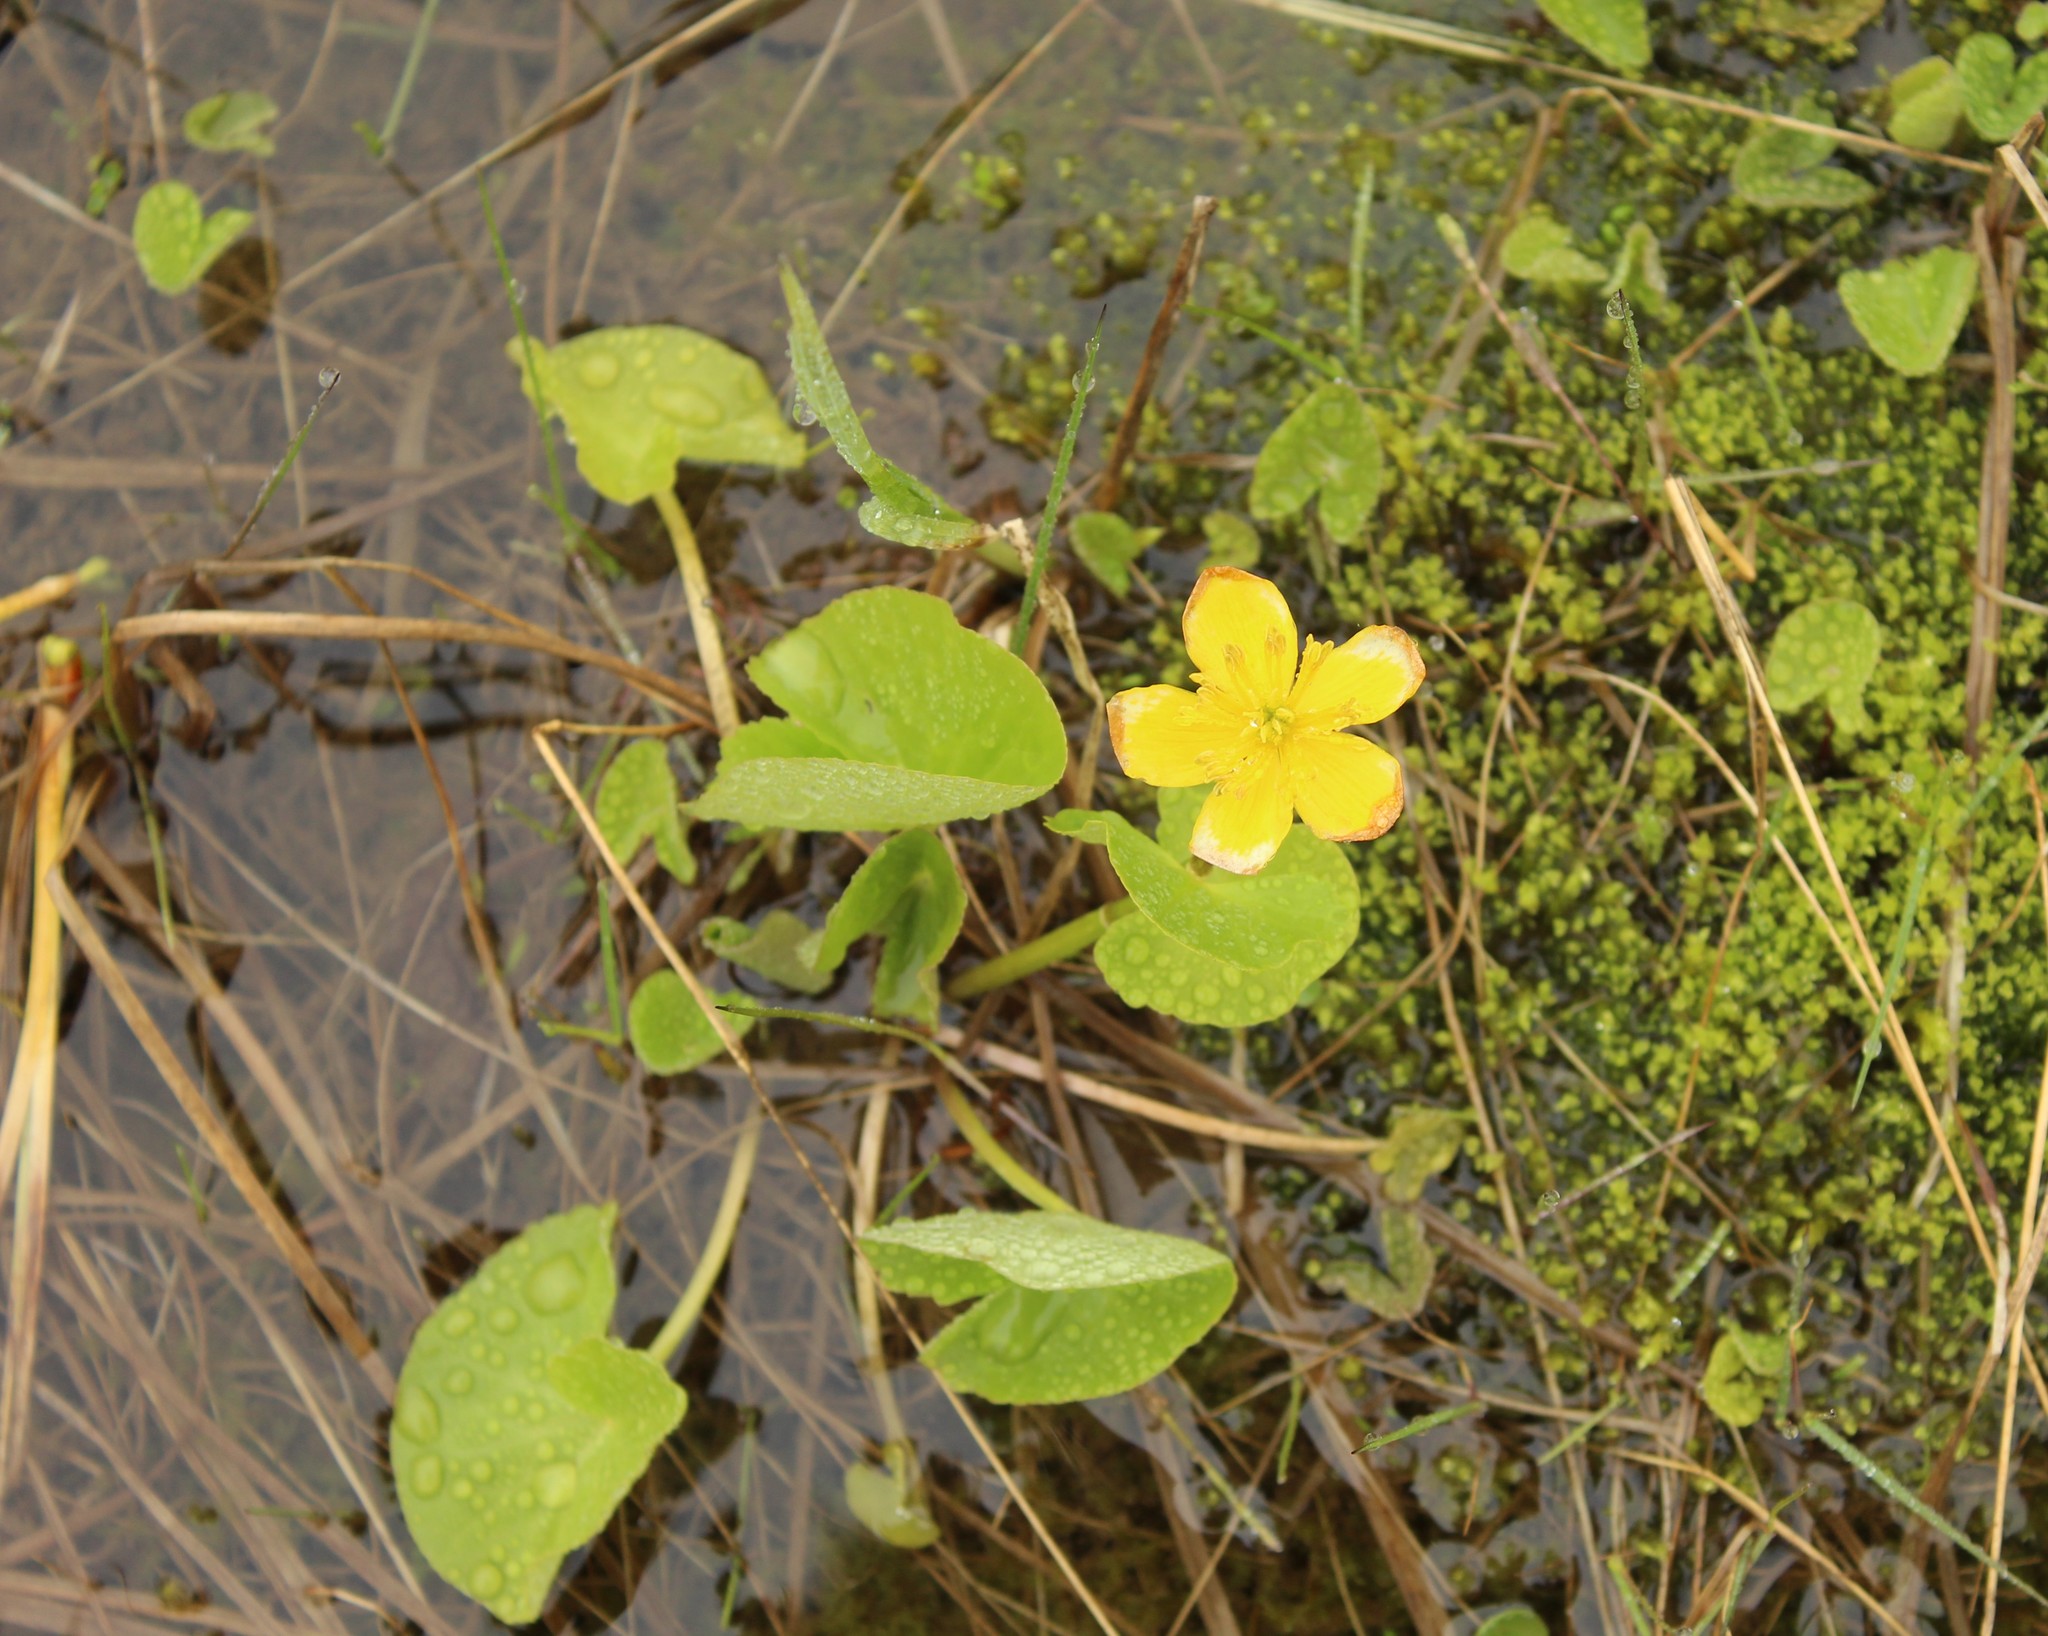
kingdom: Plantae
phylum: Tracheophyta
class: Magnoliopsida
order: Ranunculales
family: Ranunculaceae
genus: Caltha
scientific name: Caltha palustris
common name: Marsh marigold
